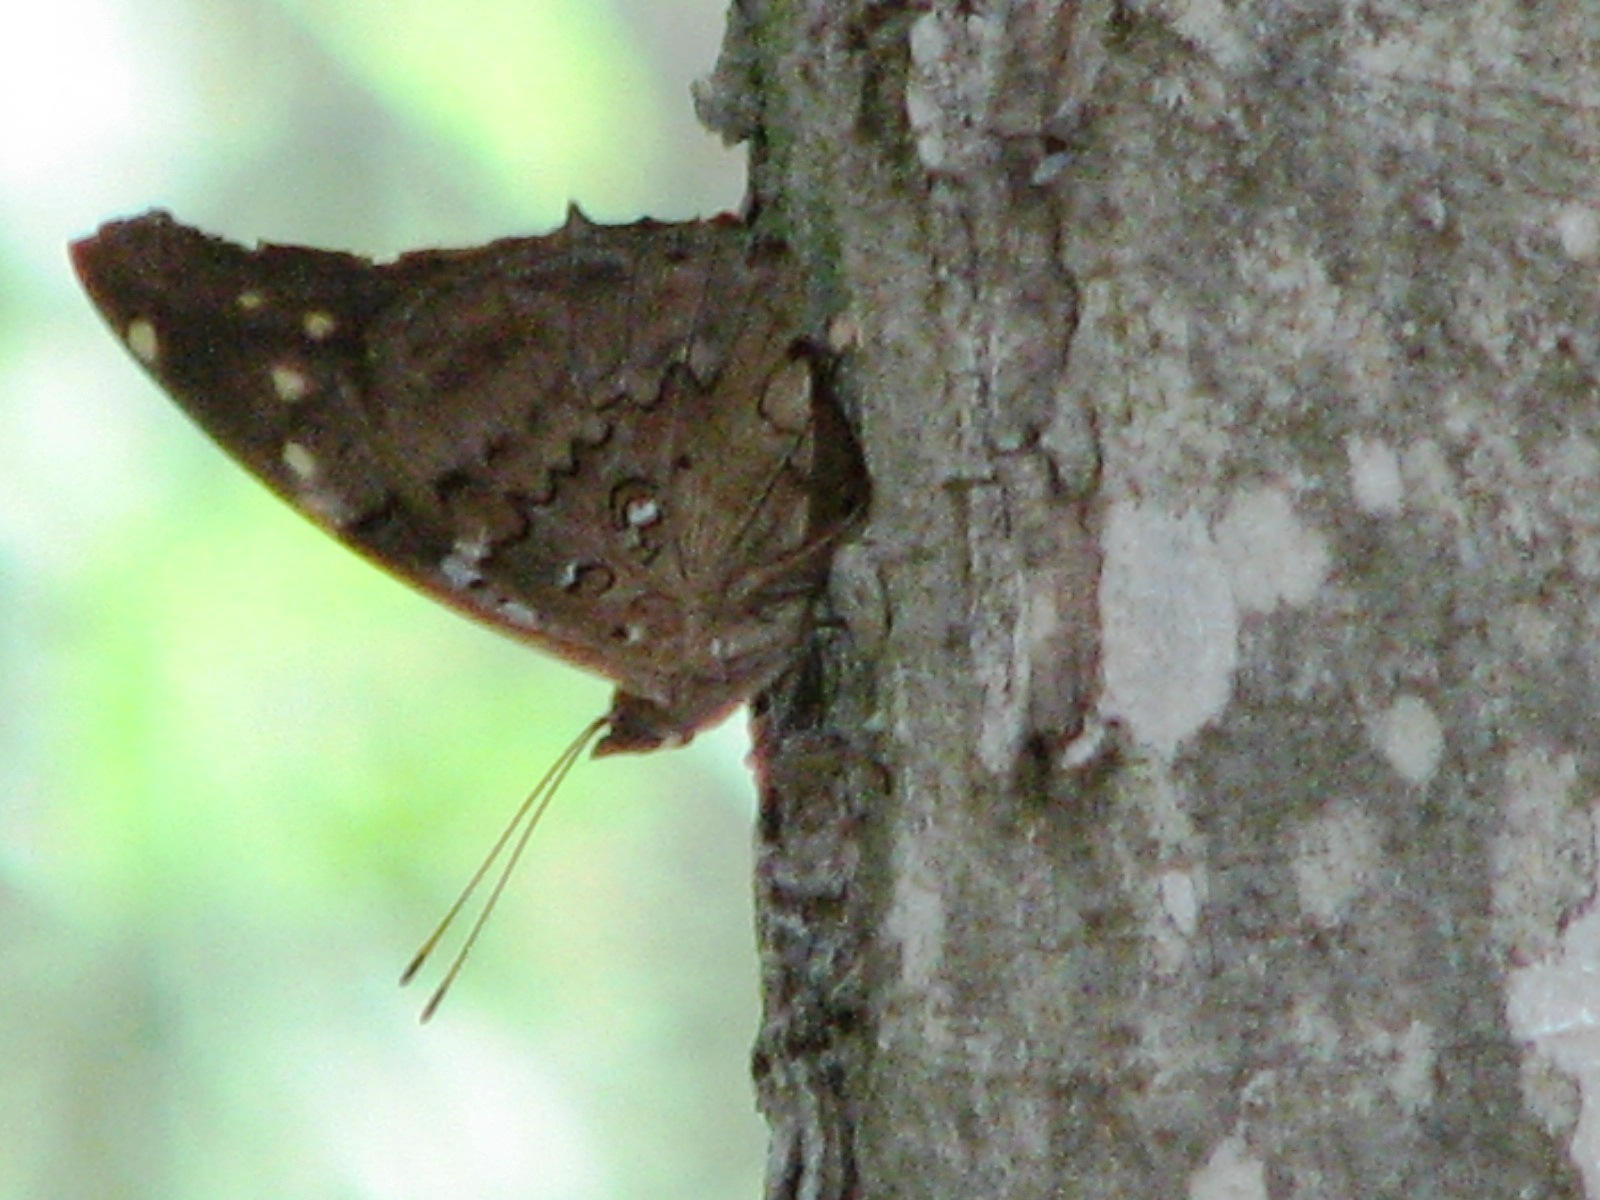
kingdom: Animalia
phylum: Arthropoda
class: Insecta
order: Lepidoptera
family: Nymphalidae
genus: Coea
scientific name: Coea acheronta
